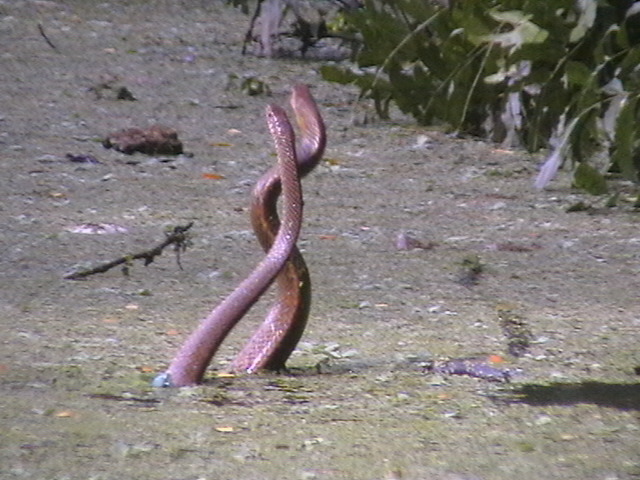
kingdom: Animalia
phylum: Chordata
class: Squamata
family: Colubridae
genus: Ptyas
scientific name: Ptyas mucosa
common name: Oriental ratsnake
